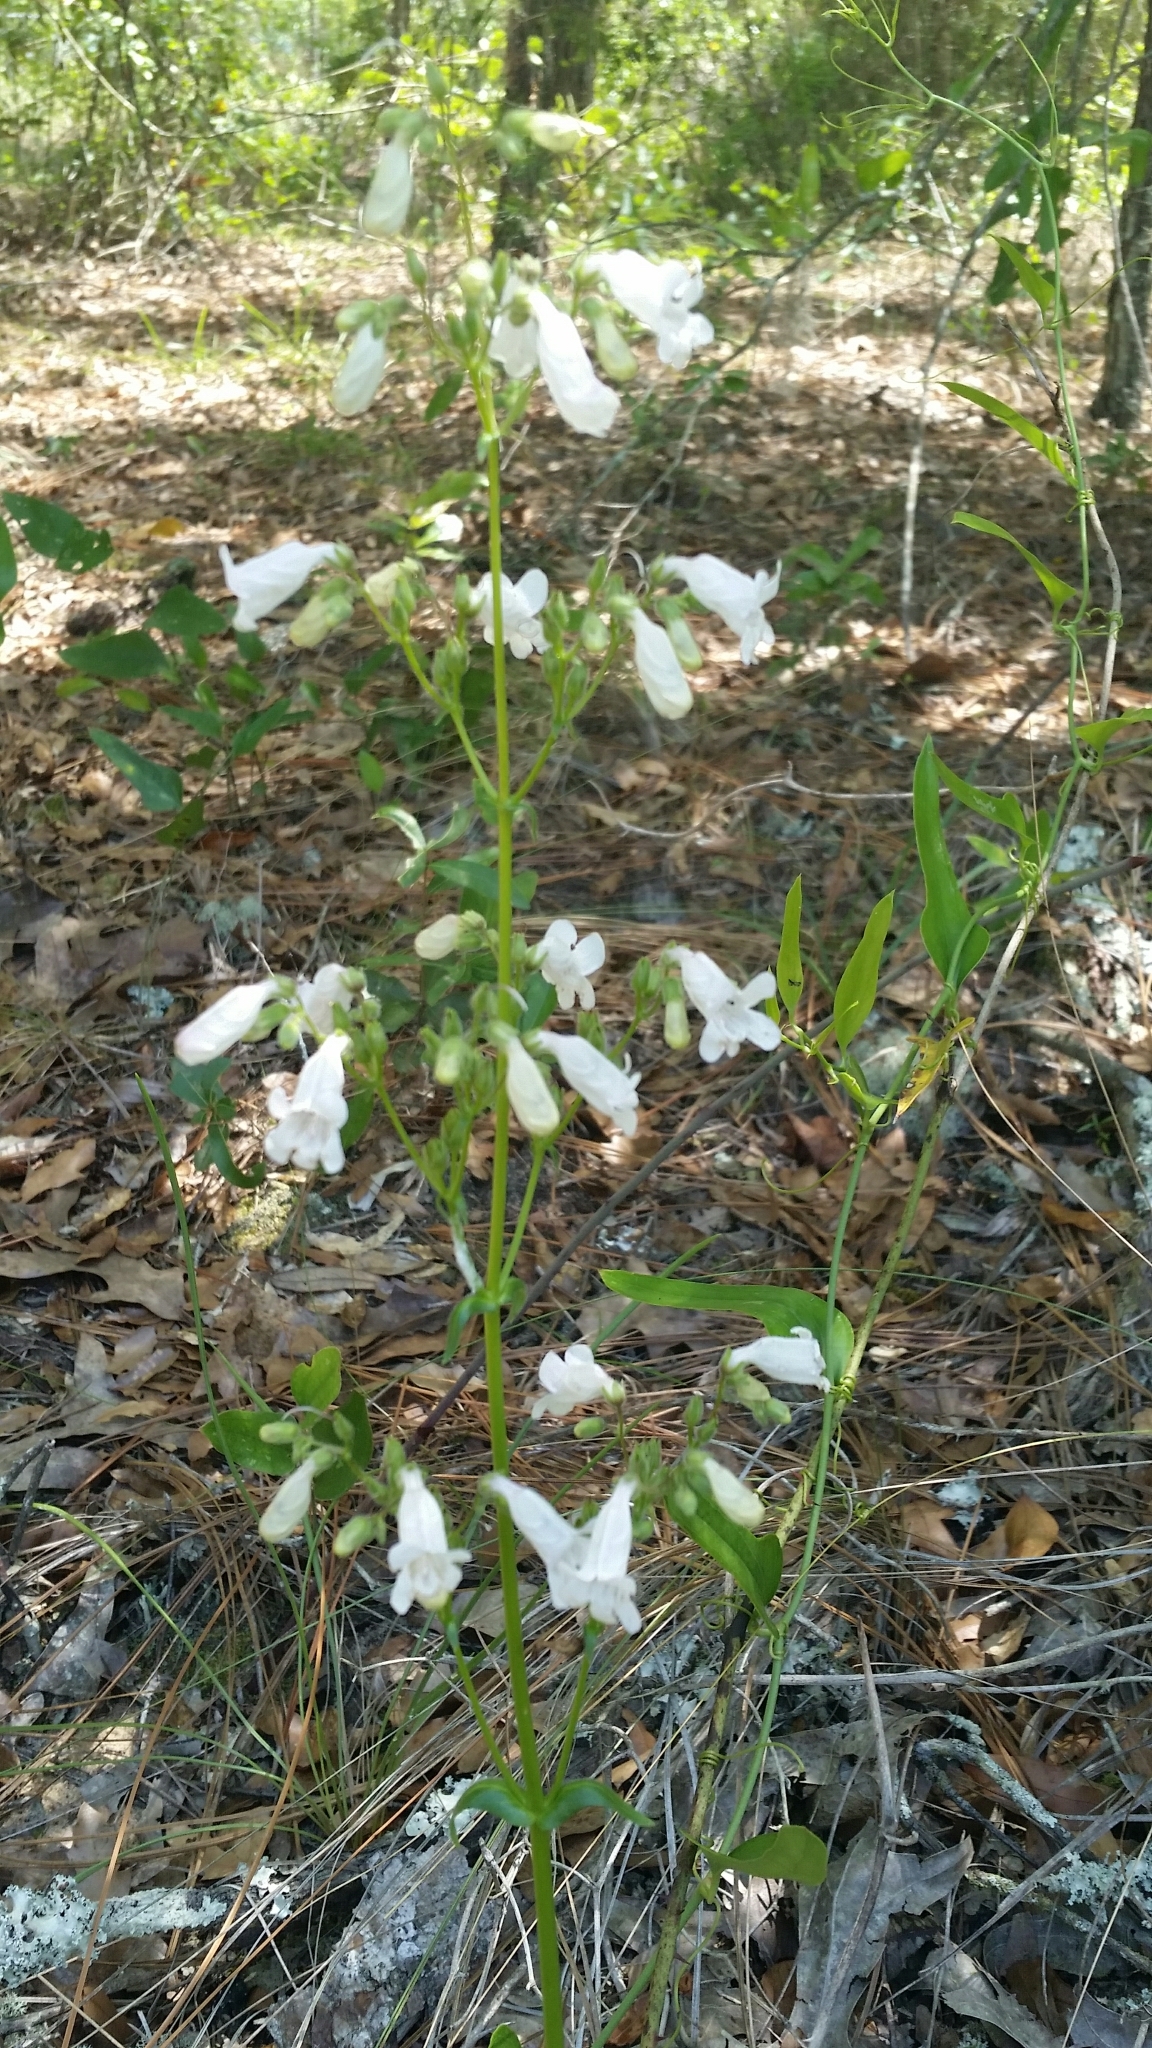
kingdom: Plantae
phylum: Tracheophyta
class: Magnoliopsida
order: Lamiales
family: Plantaginaceae
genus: Penstemon
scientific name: Penstemon multiflorus
